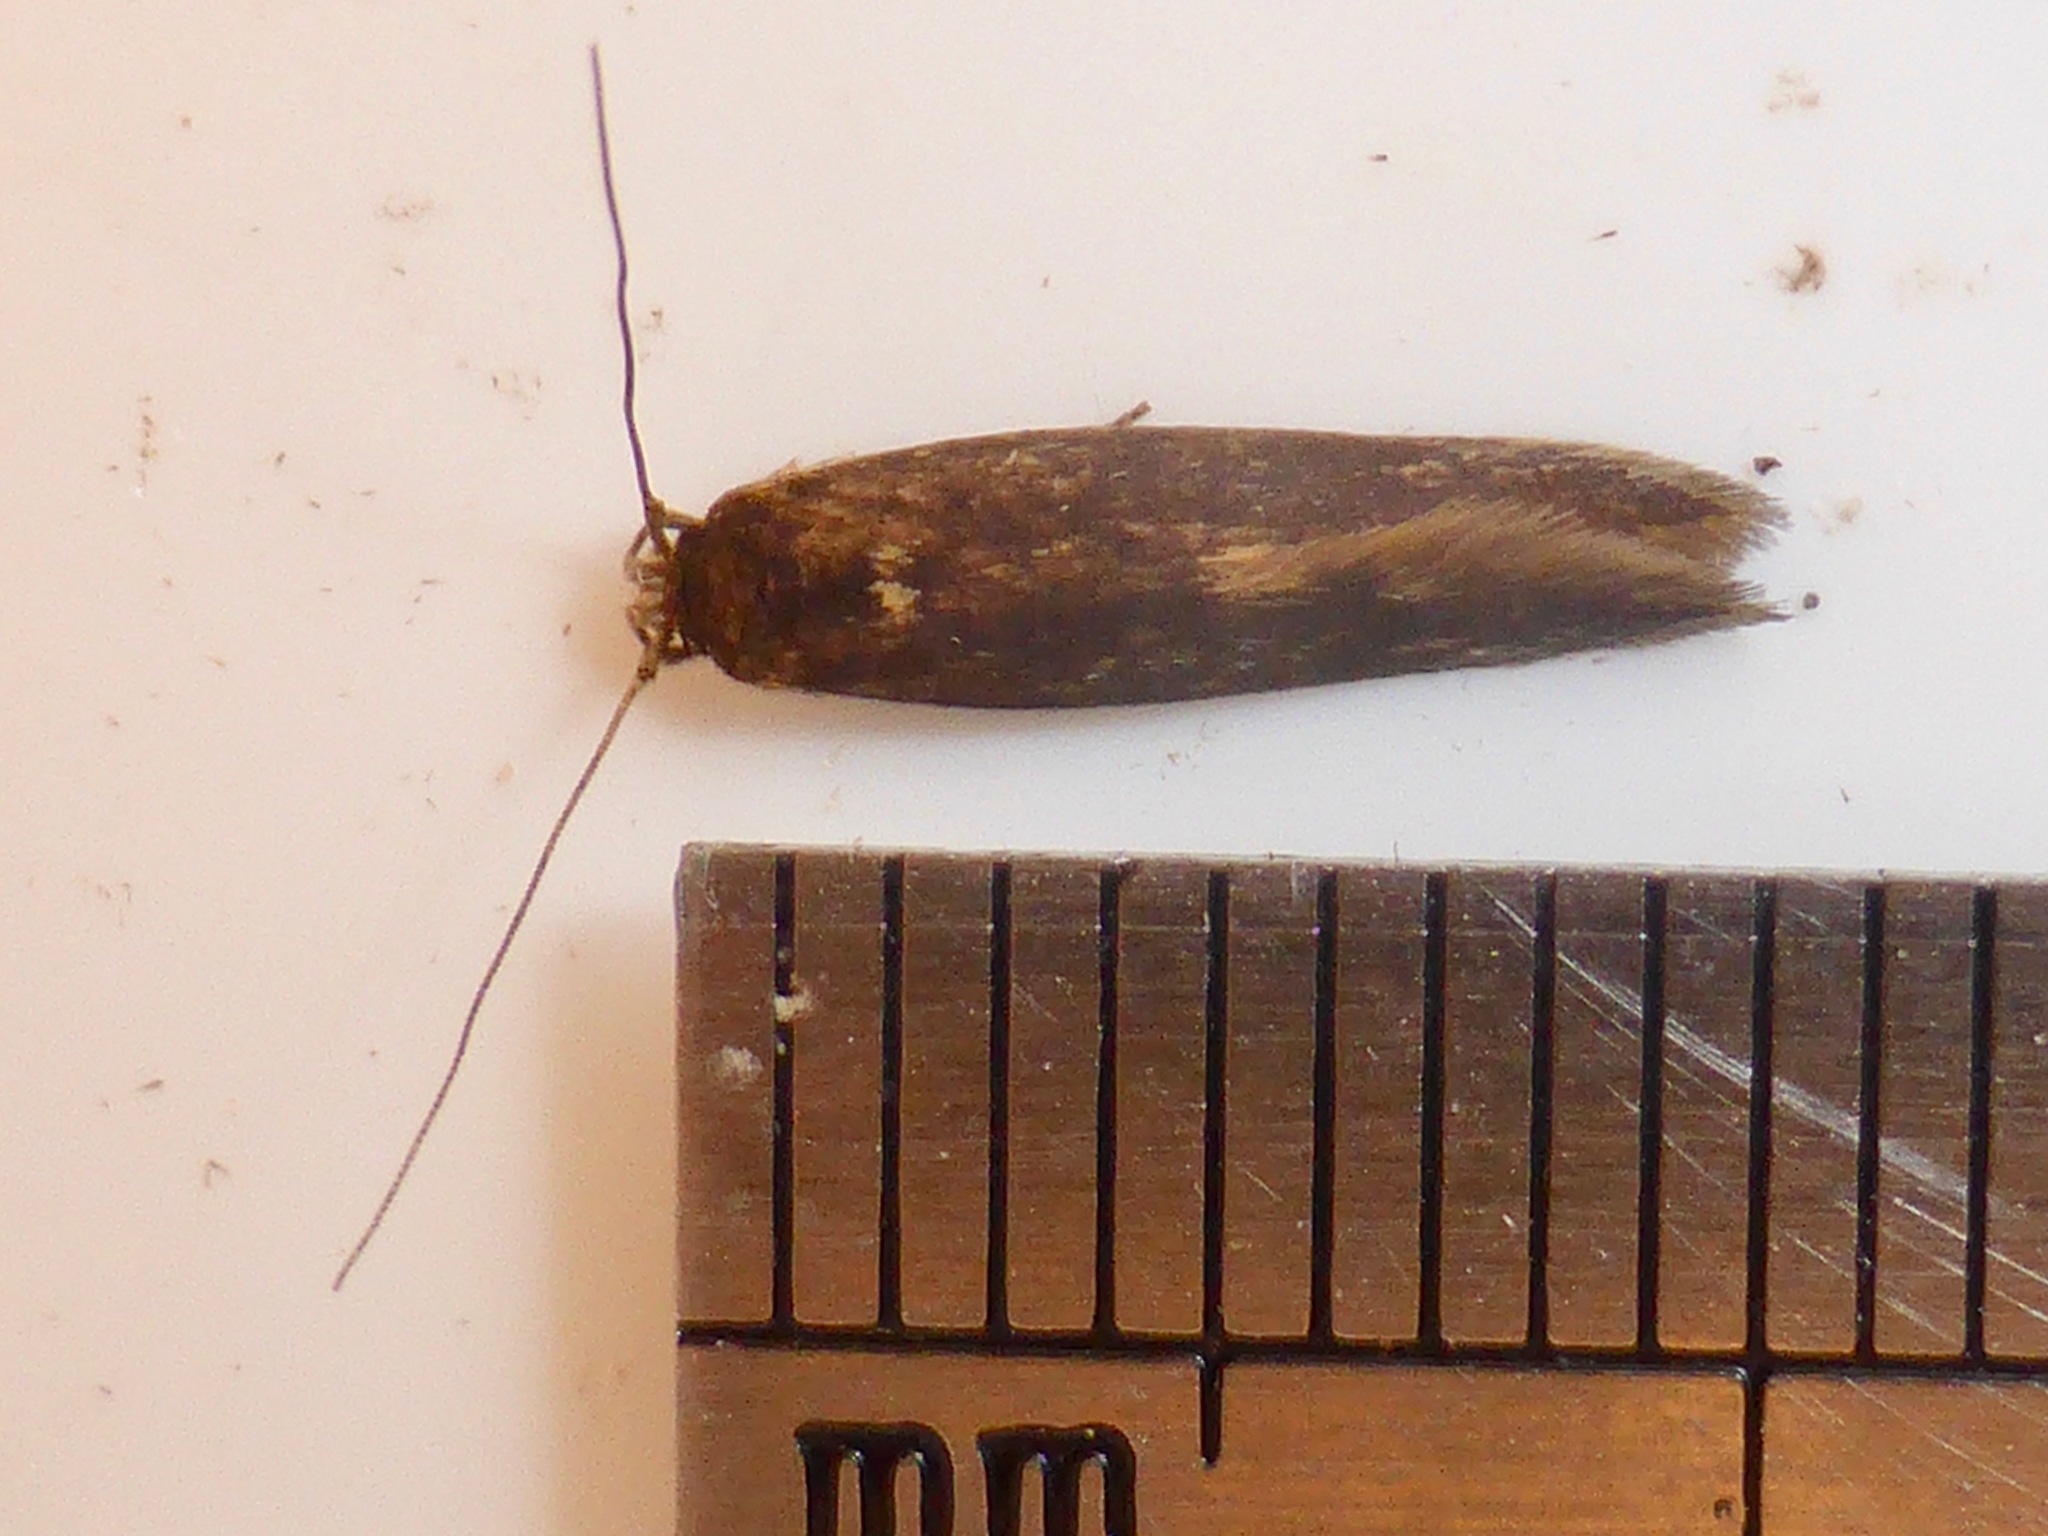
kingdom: Animalia
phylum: Arthropoda
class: Insecta
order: Lepidoptera
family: Tineidae
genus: Opogona
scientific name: Opogona omoscopa
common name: Moth
